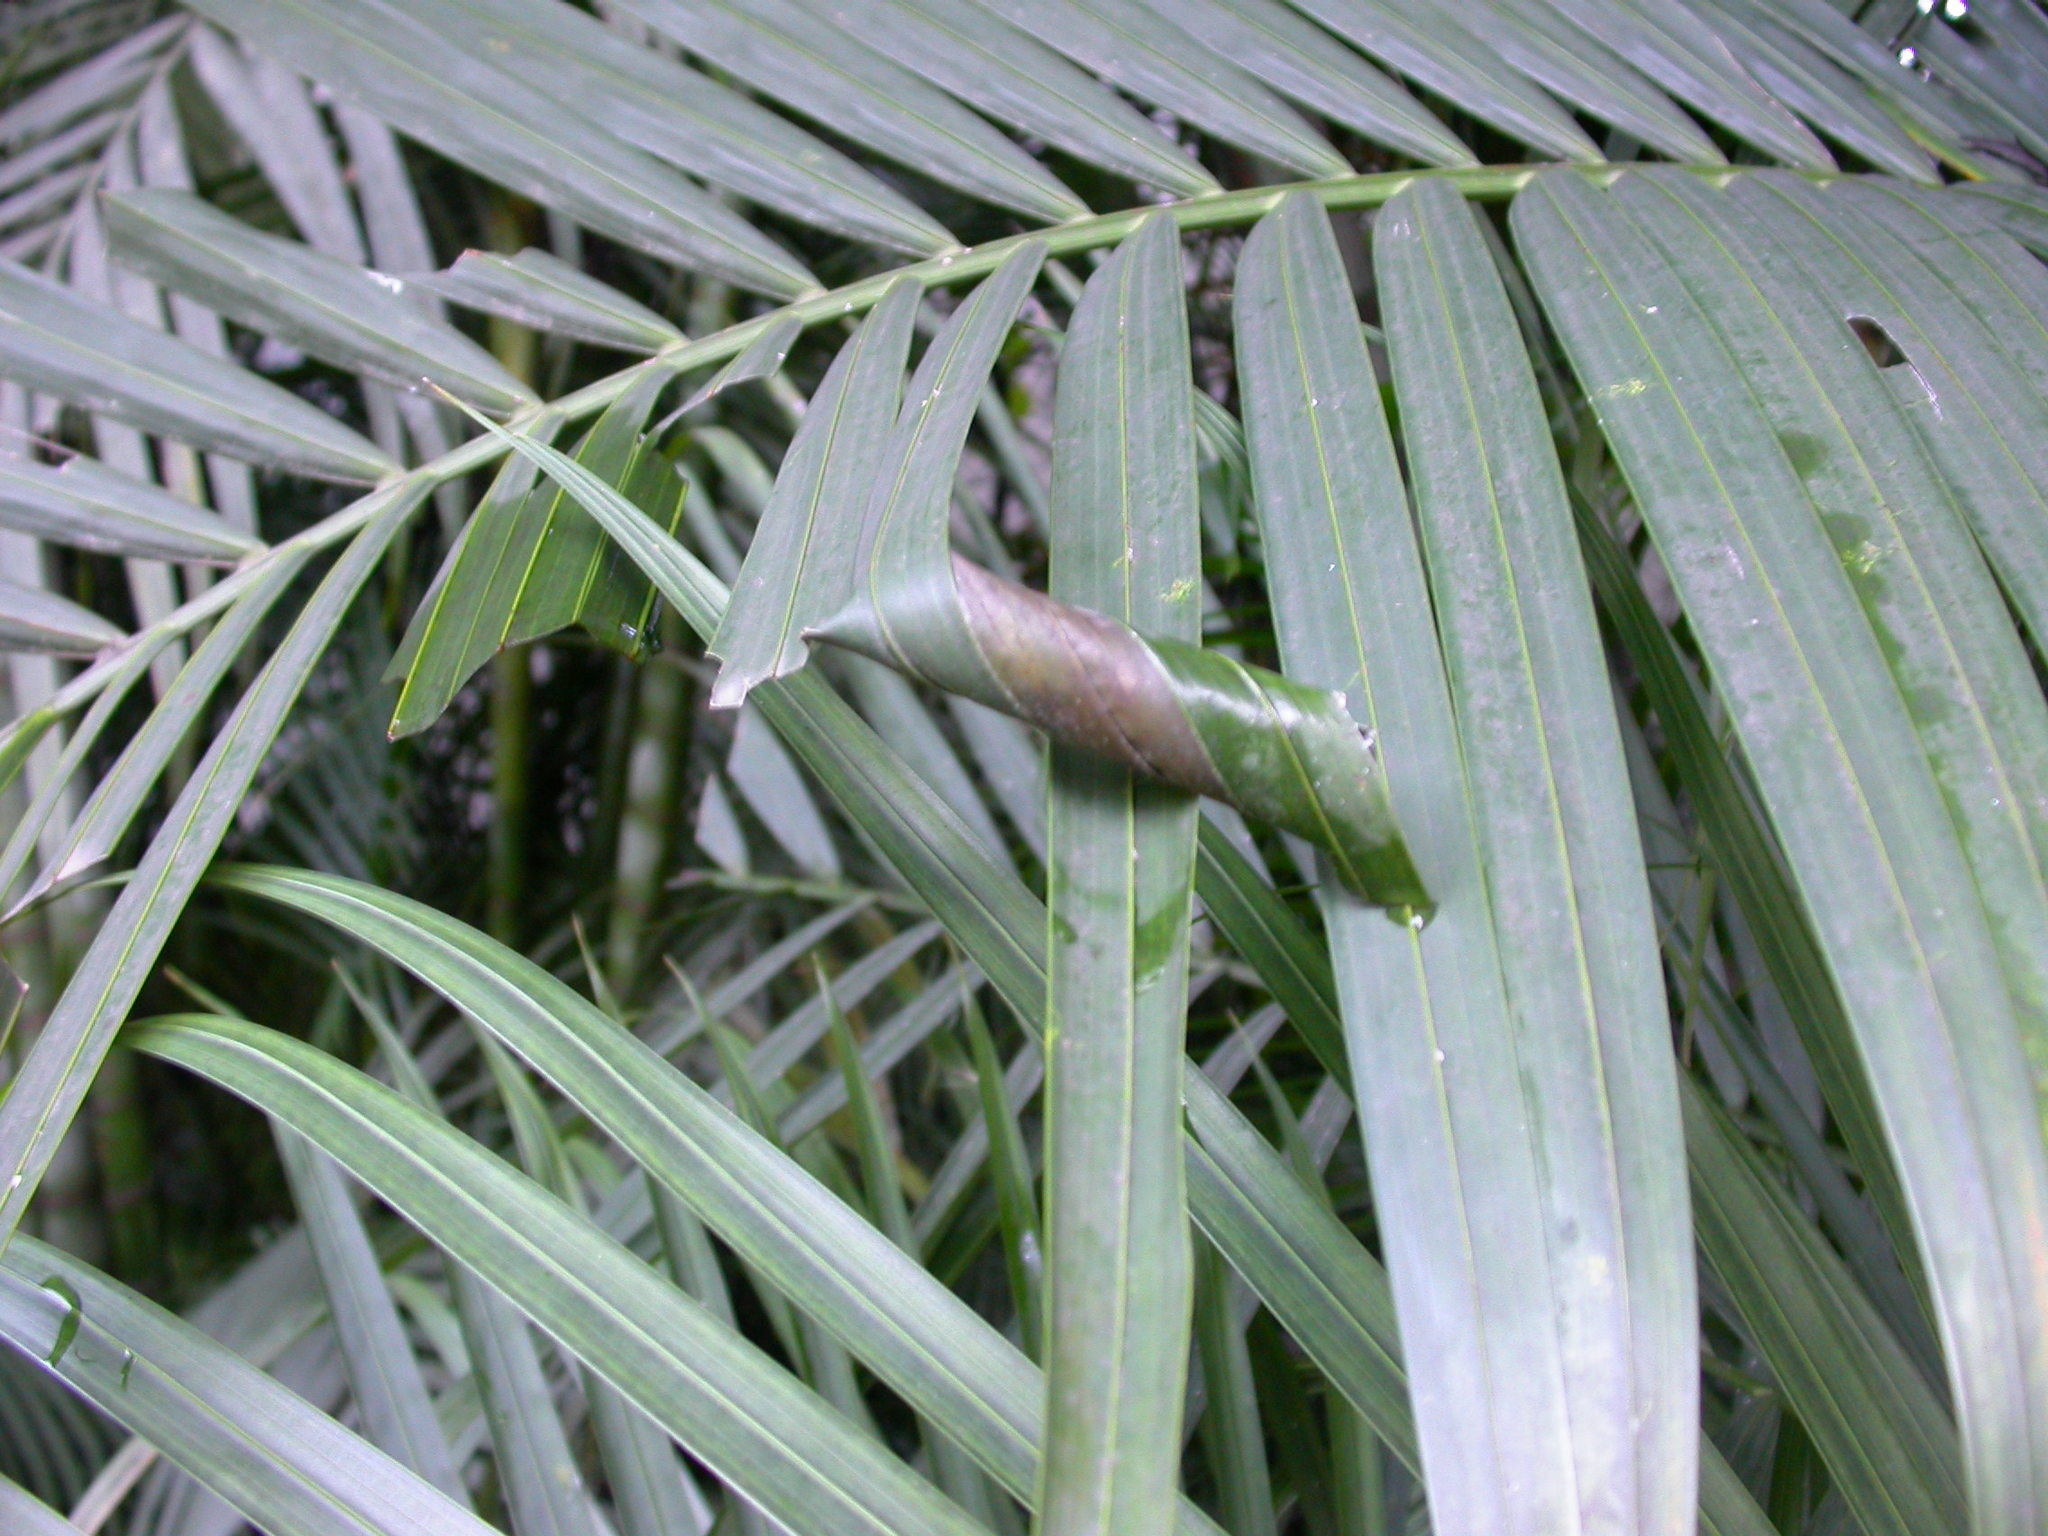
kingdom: Animalia
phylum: Arthropoda
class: Insecta
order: Lepidoptera
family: Hesperiidae
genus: Gangara
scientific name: Gangara thyrsis
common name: Giant redeye
